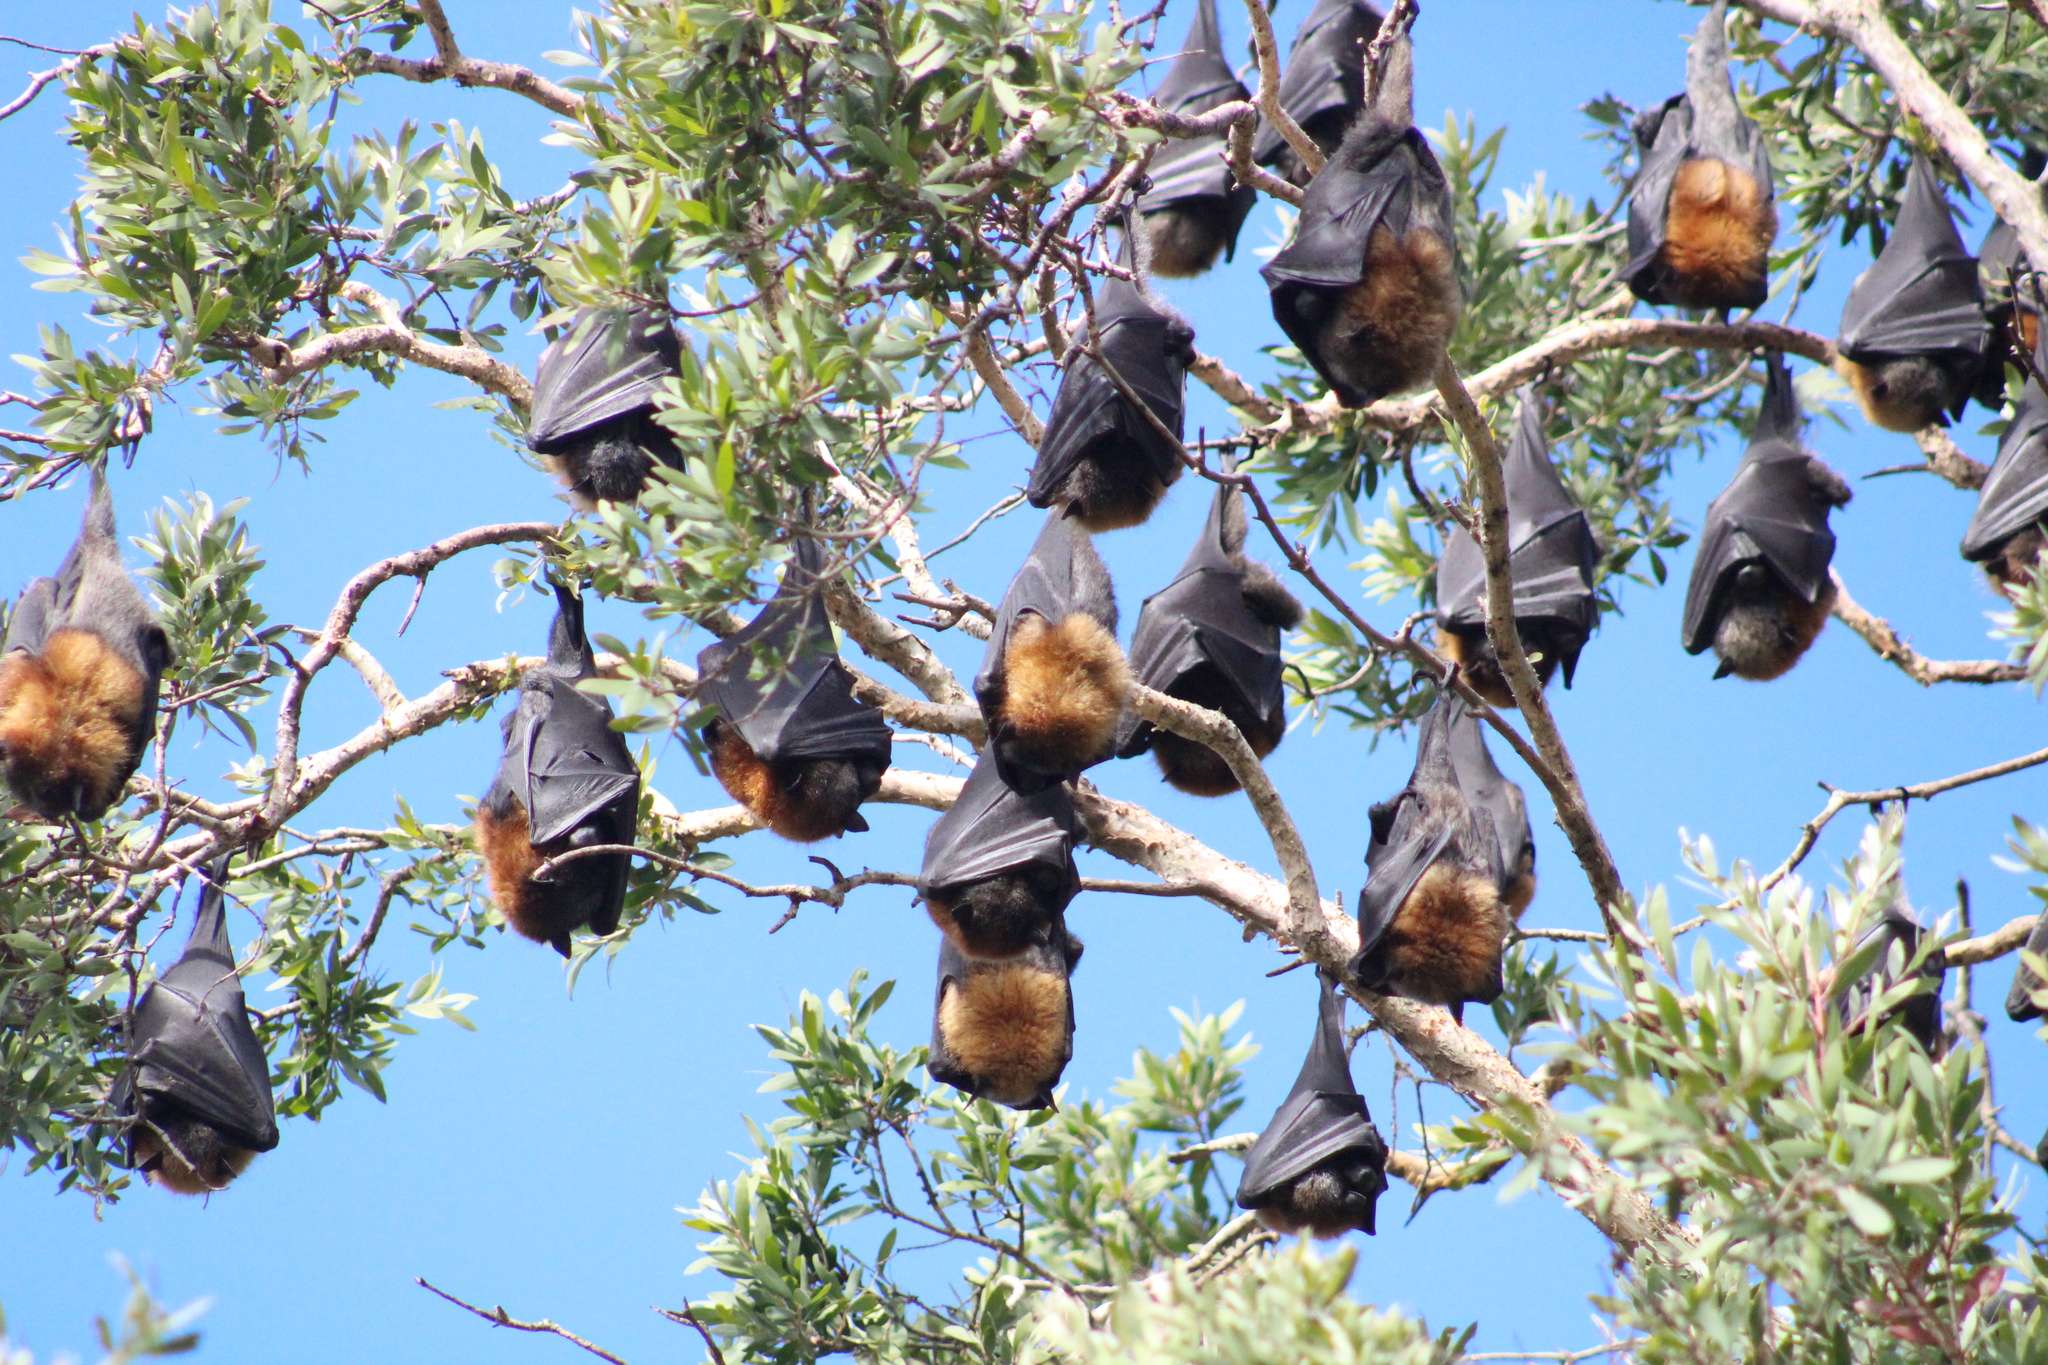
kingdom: Animalia
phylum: Chordata
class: Mammalia
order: Chiroptera
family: Pteropodidae
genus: Pteropus
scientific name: Pteropus poliocephalus
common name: Gray-headed flying fox
